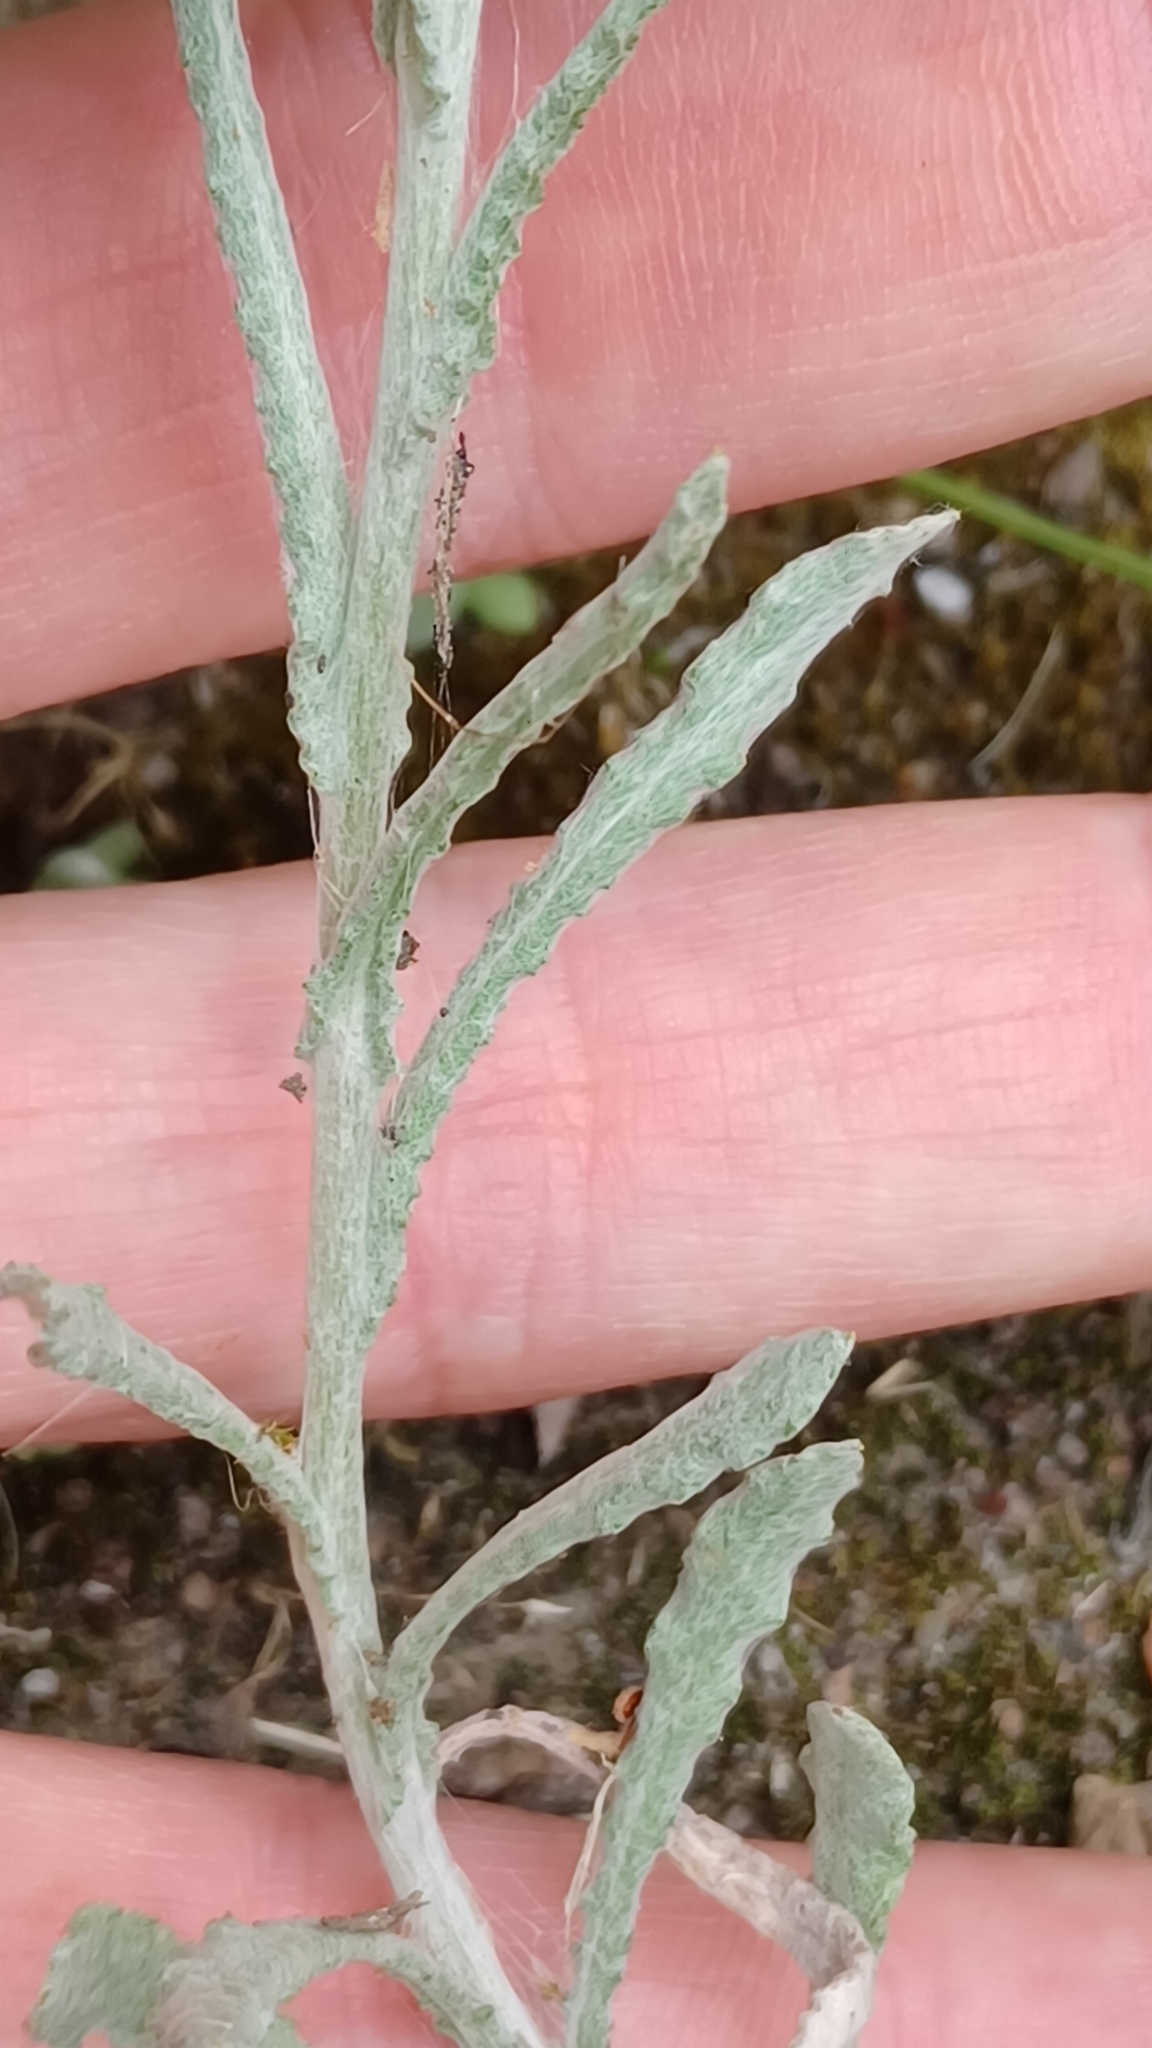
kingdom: Plantae
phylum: Tracheophyta
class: Magnoliopsida
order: Asterales
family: Asteraceae
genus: Helichrysum
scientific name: Helichrysum luteoalbum
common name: Daisy
